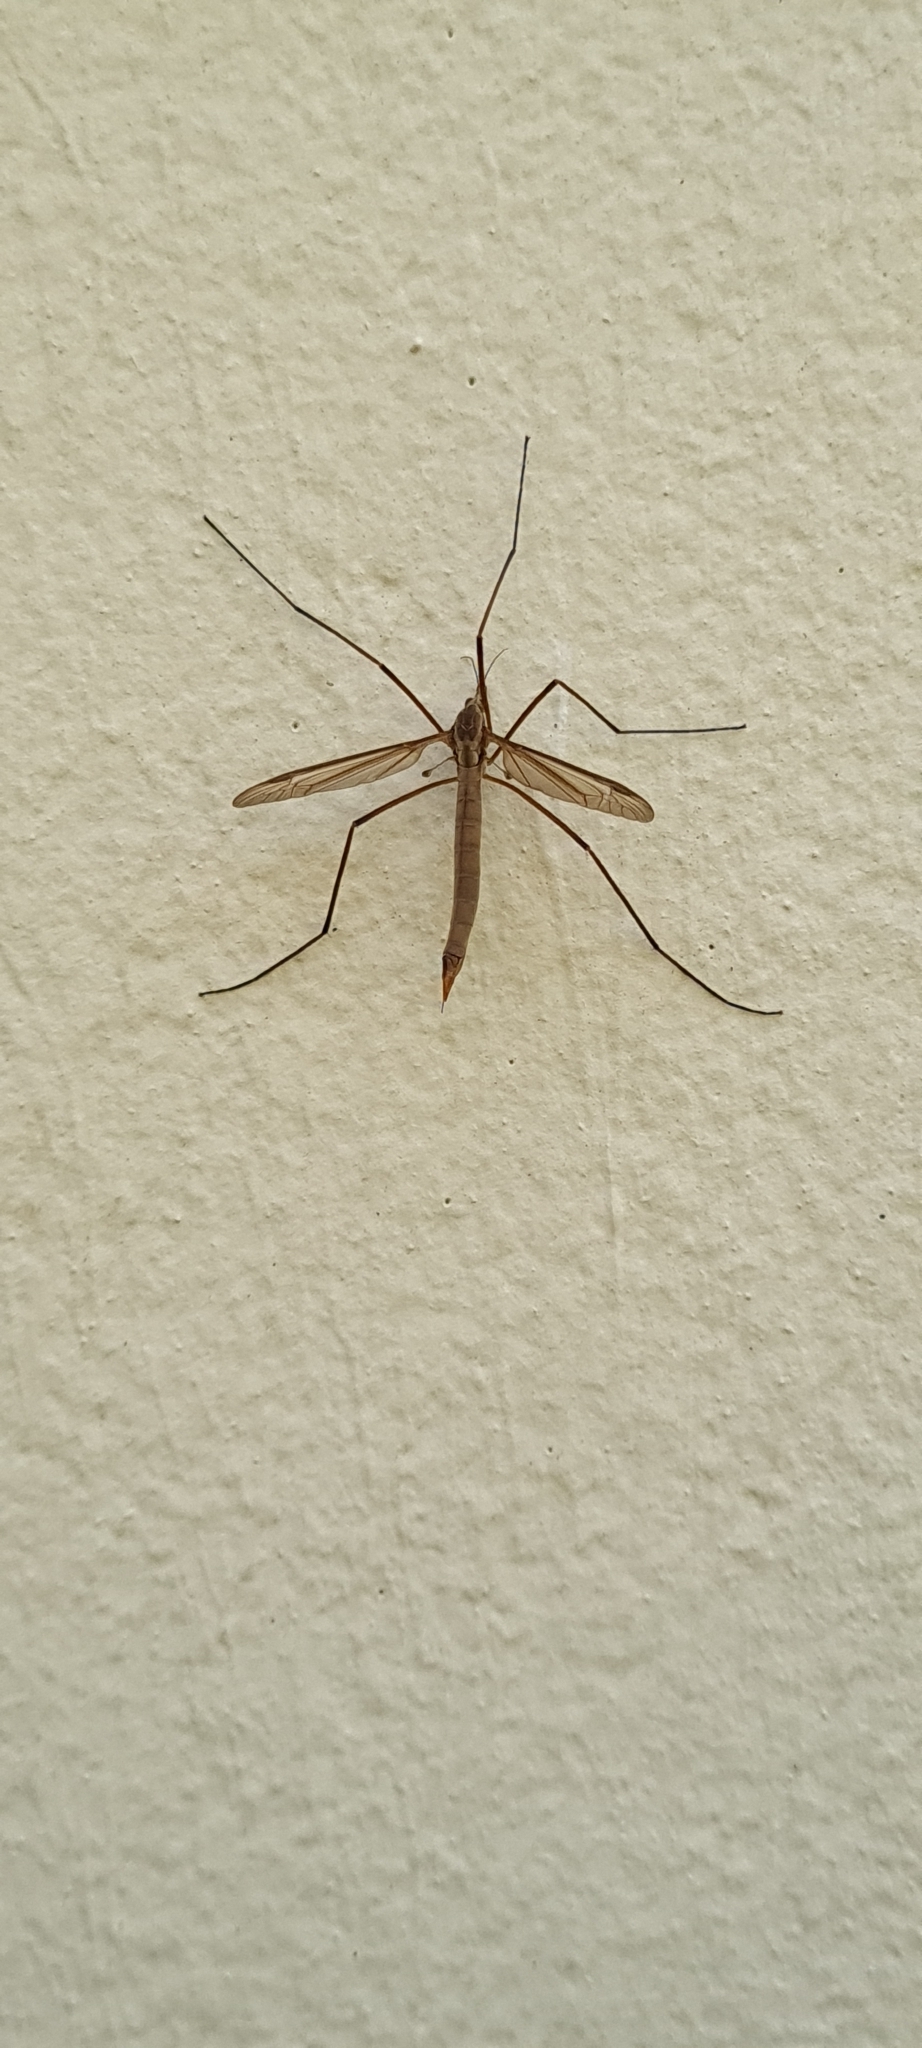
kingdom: Animalia
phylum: Arthropoda
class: Insecta
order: Diptera
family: Tipulidae
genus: Tipula
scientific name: Tipula paludosa
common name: European cranefly
